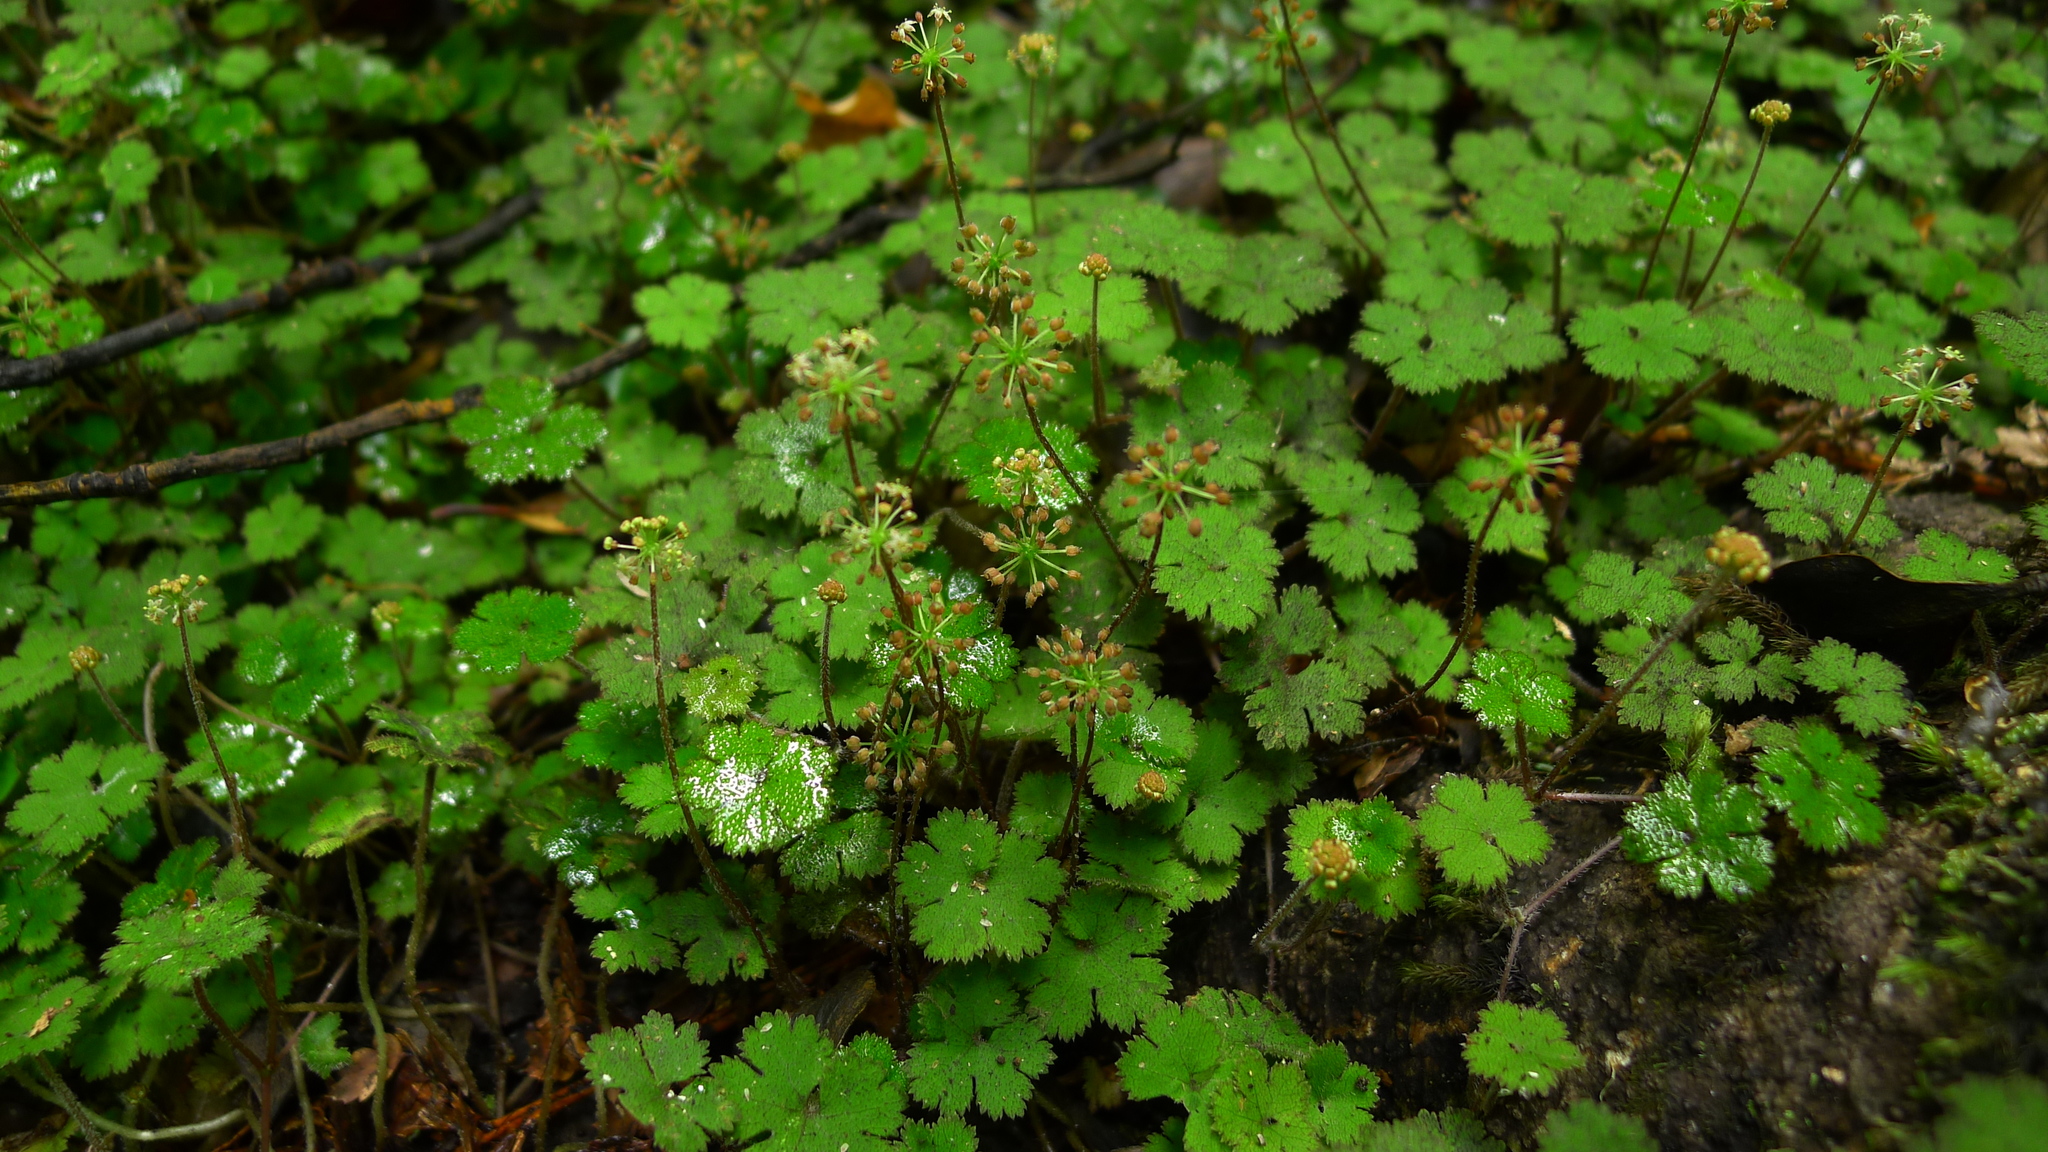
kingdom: Plantae
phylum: Tracheophyta
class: Magnoliopsida
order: Apiales
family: Araliaceae
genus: Hydrocotyle
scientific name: Hydrocotyle elongata
